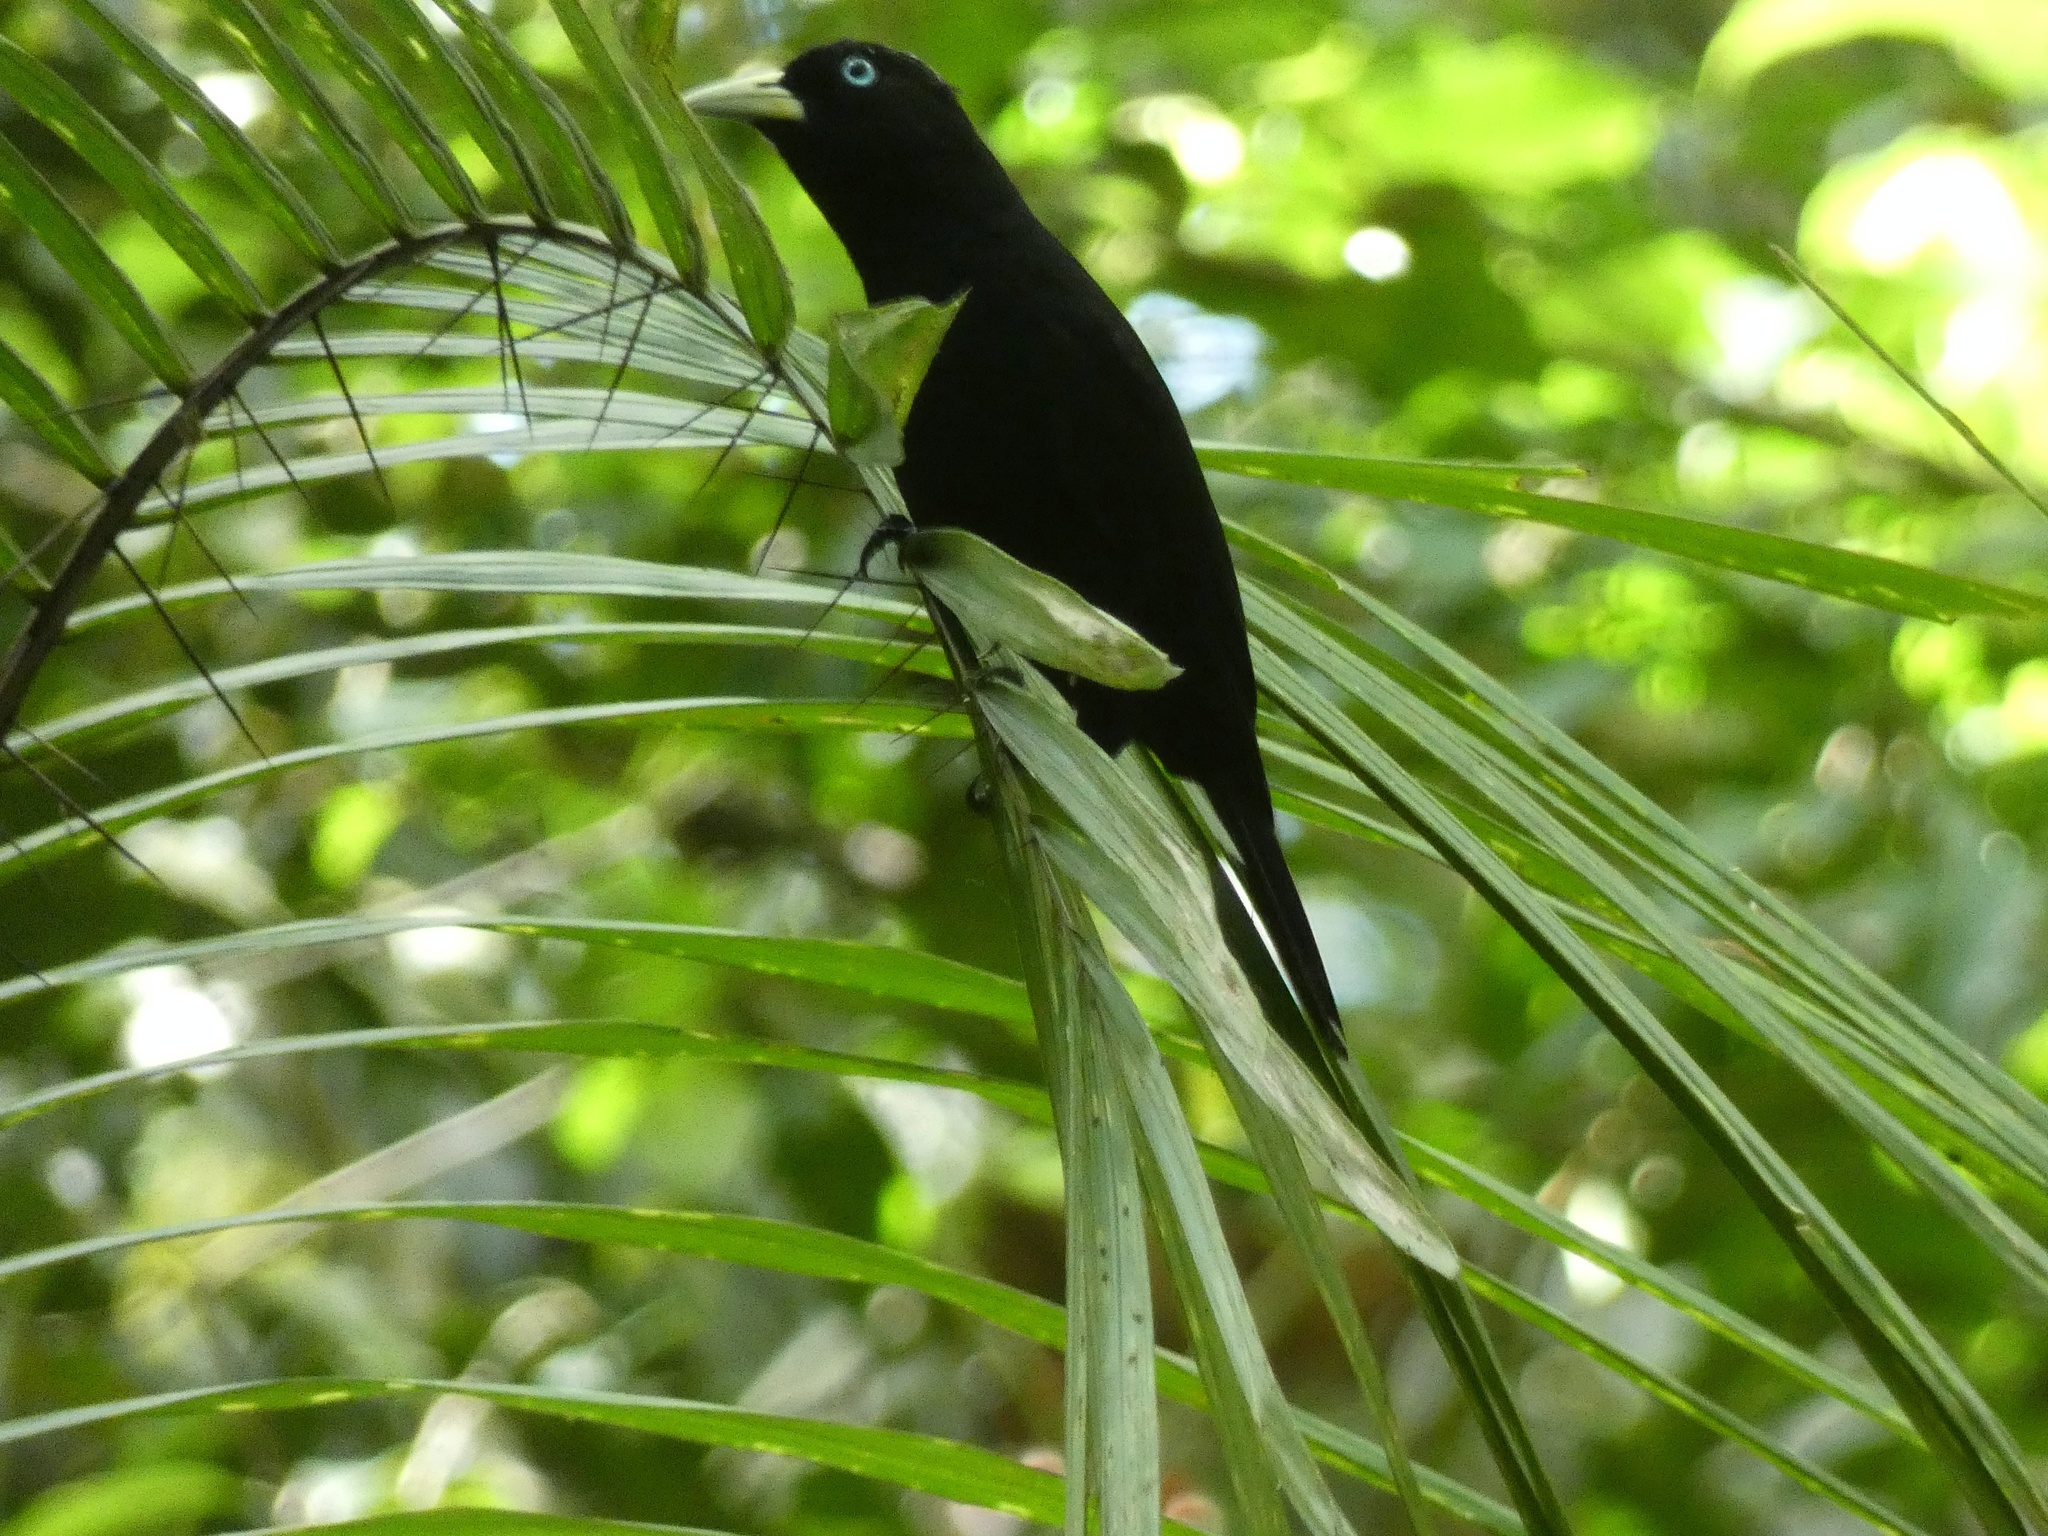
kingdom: Animalia
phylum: Chordata
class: Aves
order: Passeriformes
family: Icteridae
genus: Cacicus
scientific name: Cacicus uropygialis
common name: Scarlet-rumped cacique
